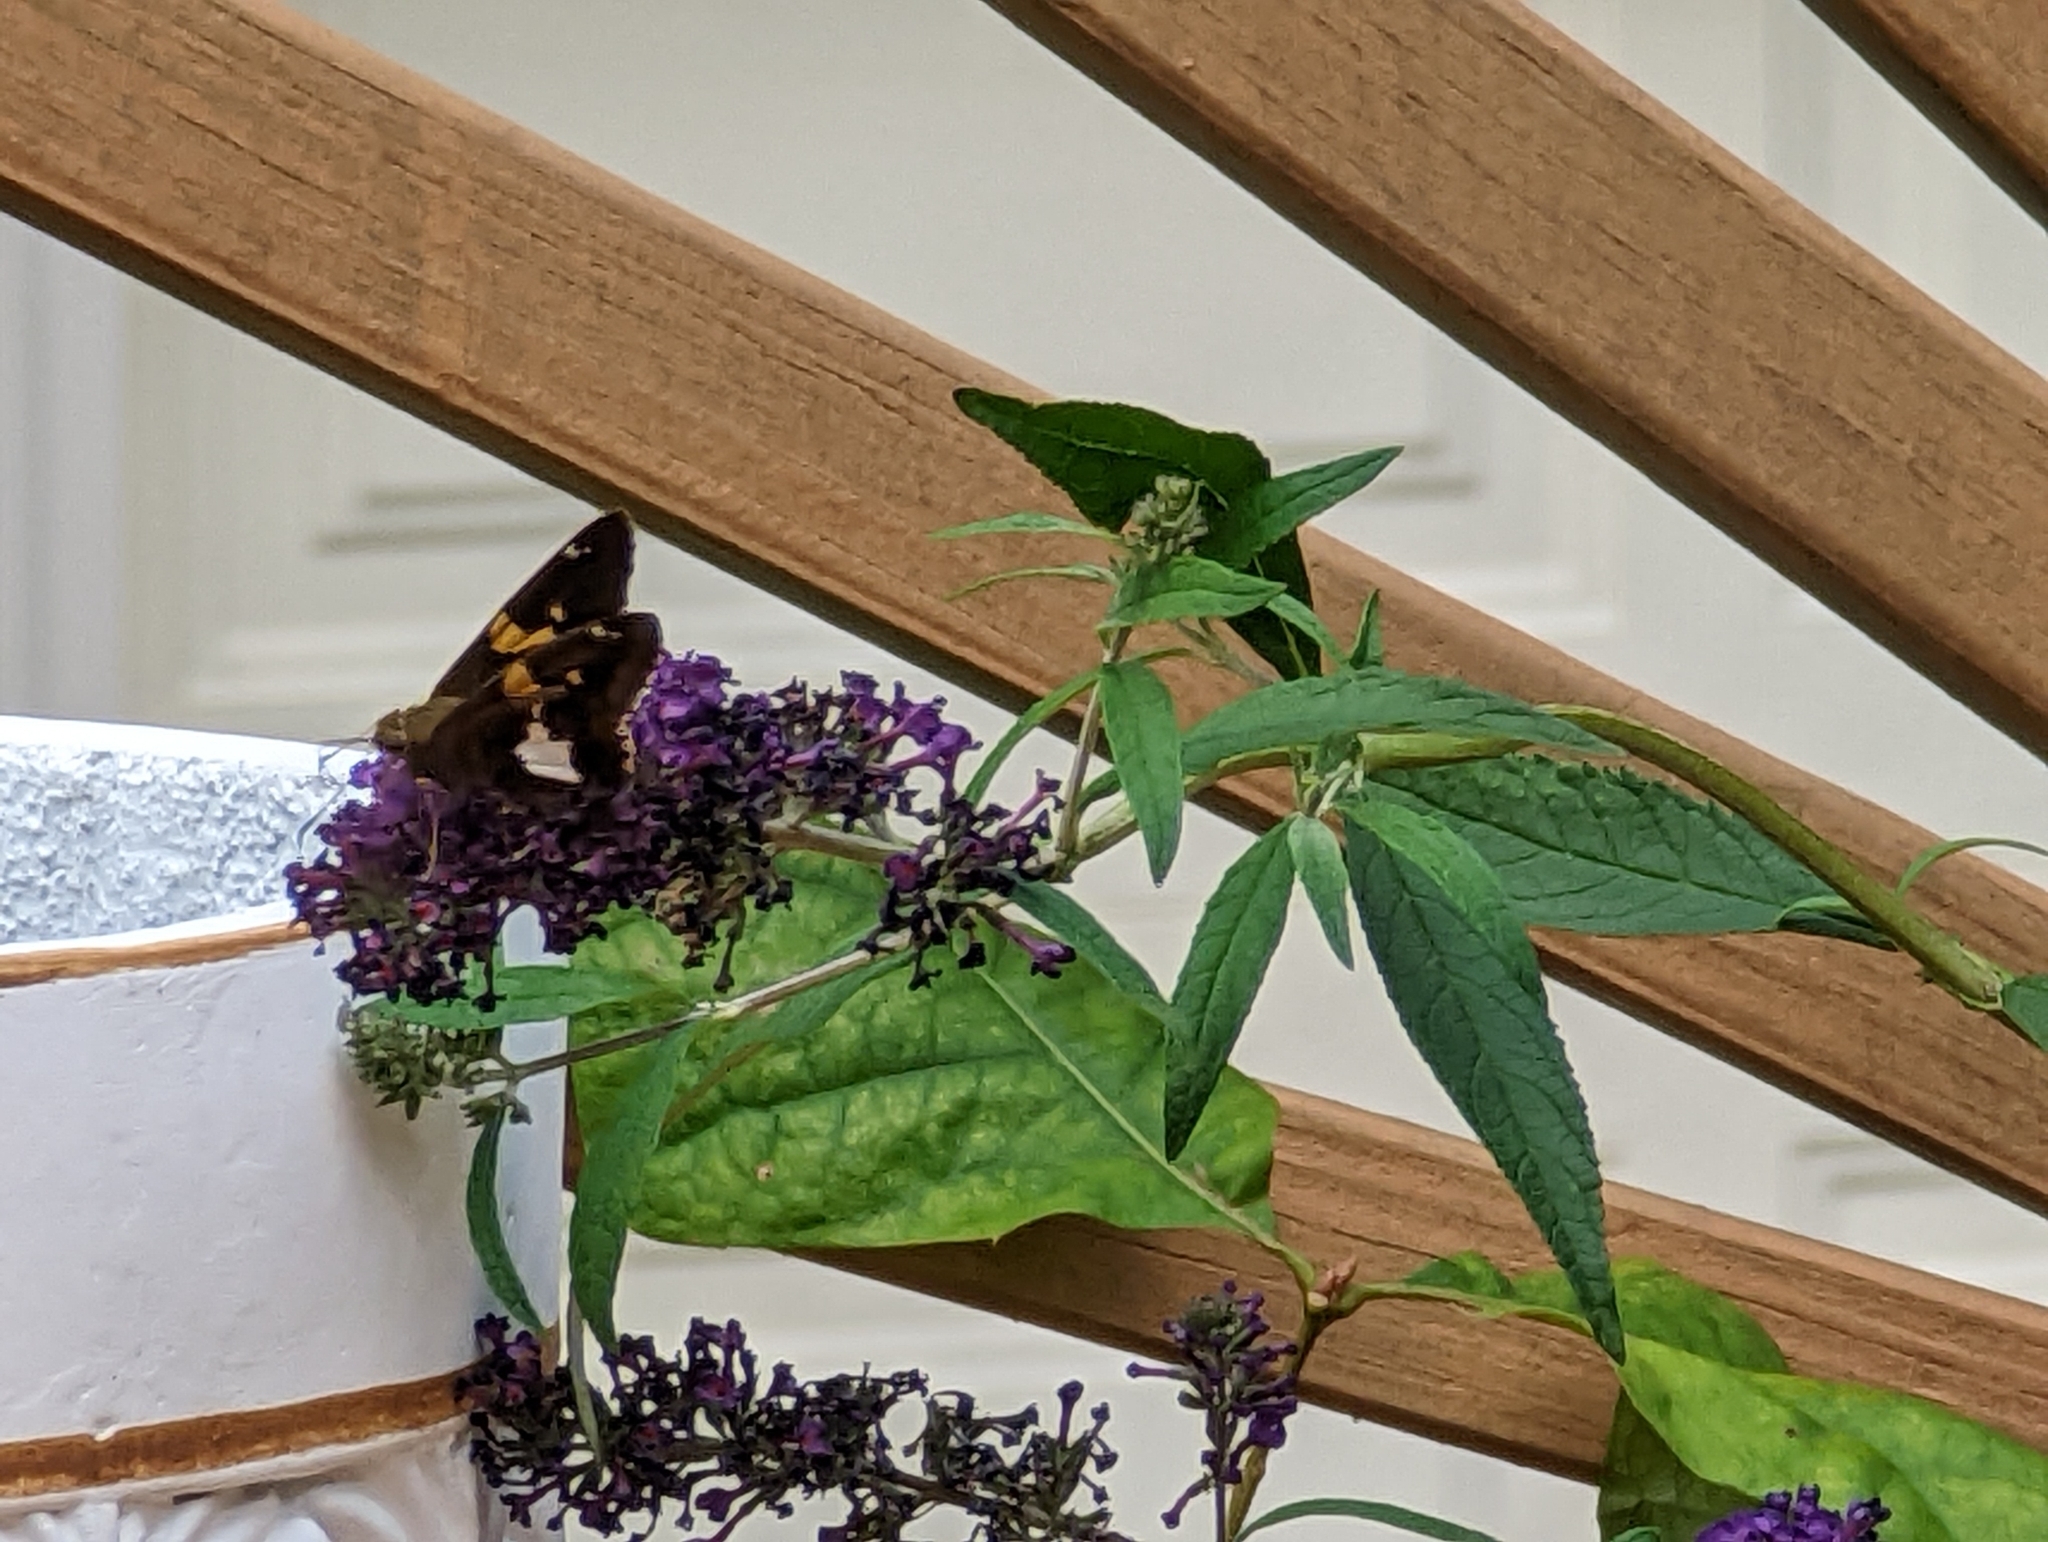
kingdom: Animalia
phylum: Arthropoda
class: Insecta
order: Lepidoptera
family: Hesperiidae
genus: Epargyreus
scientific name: Epargyreus clarus
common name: Silver-spotted skipper
